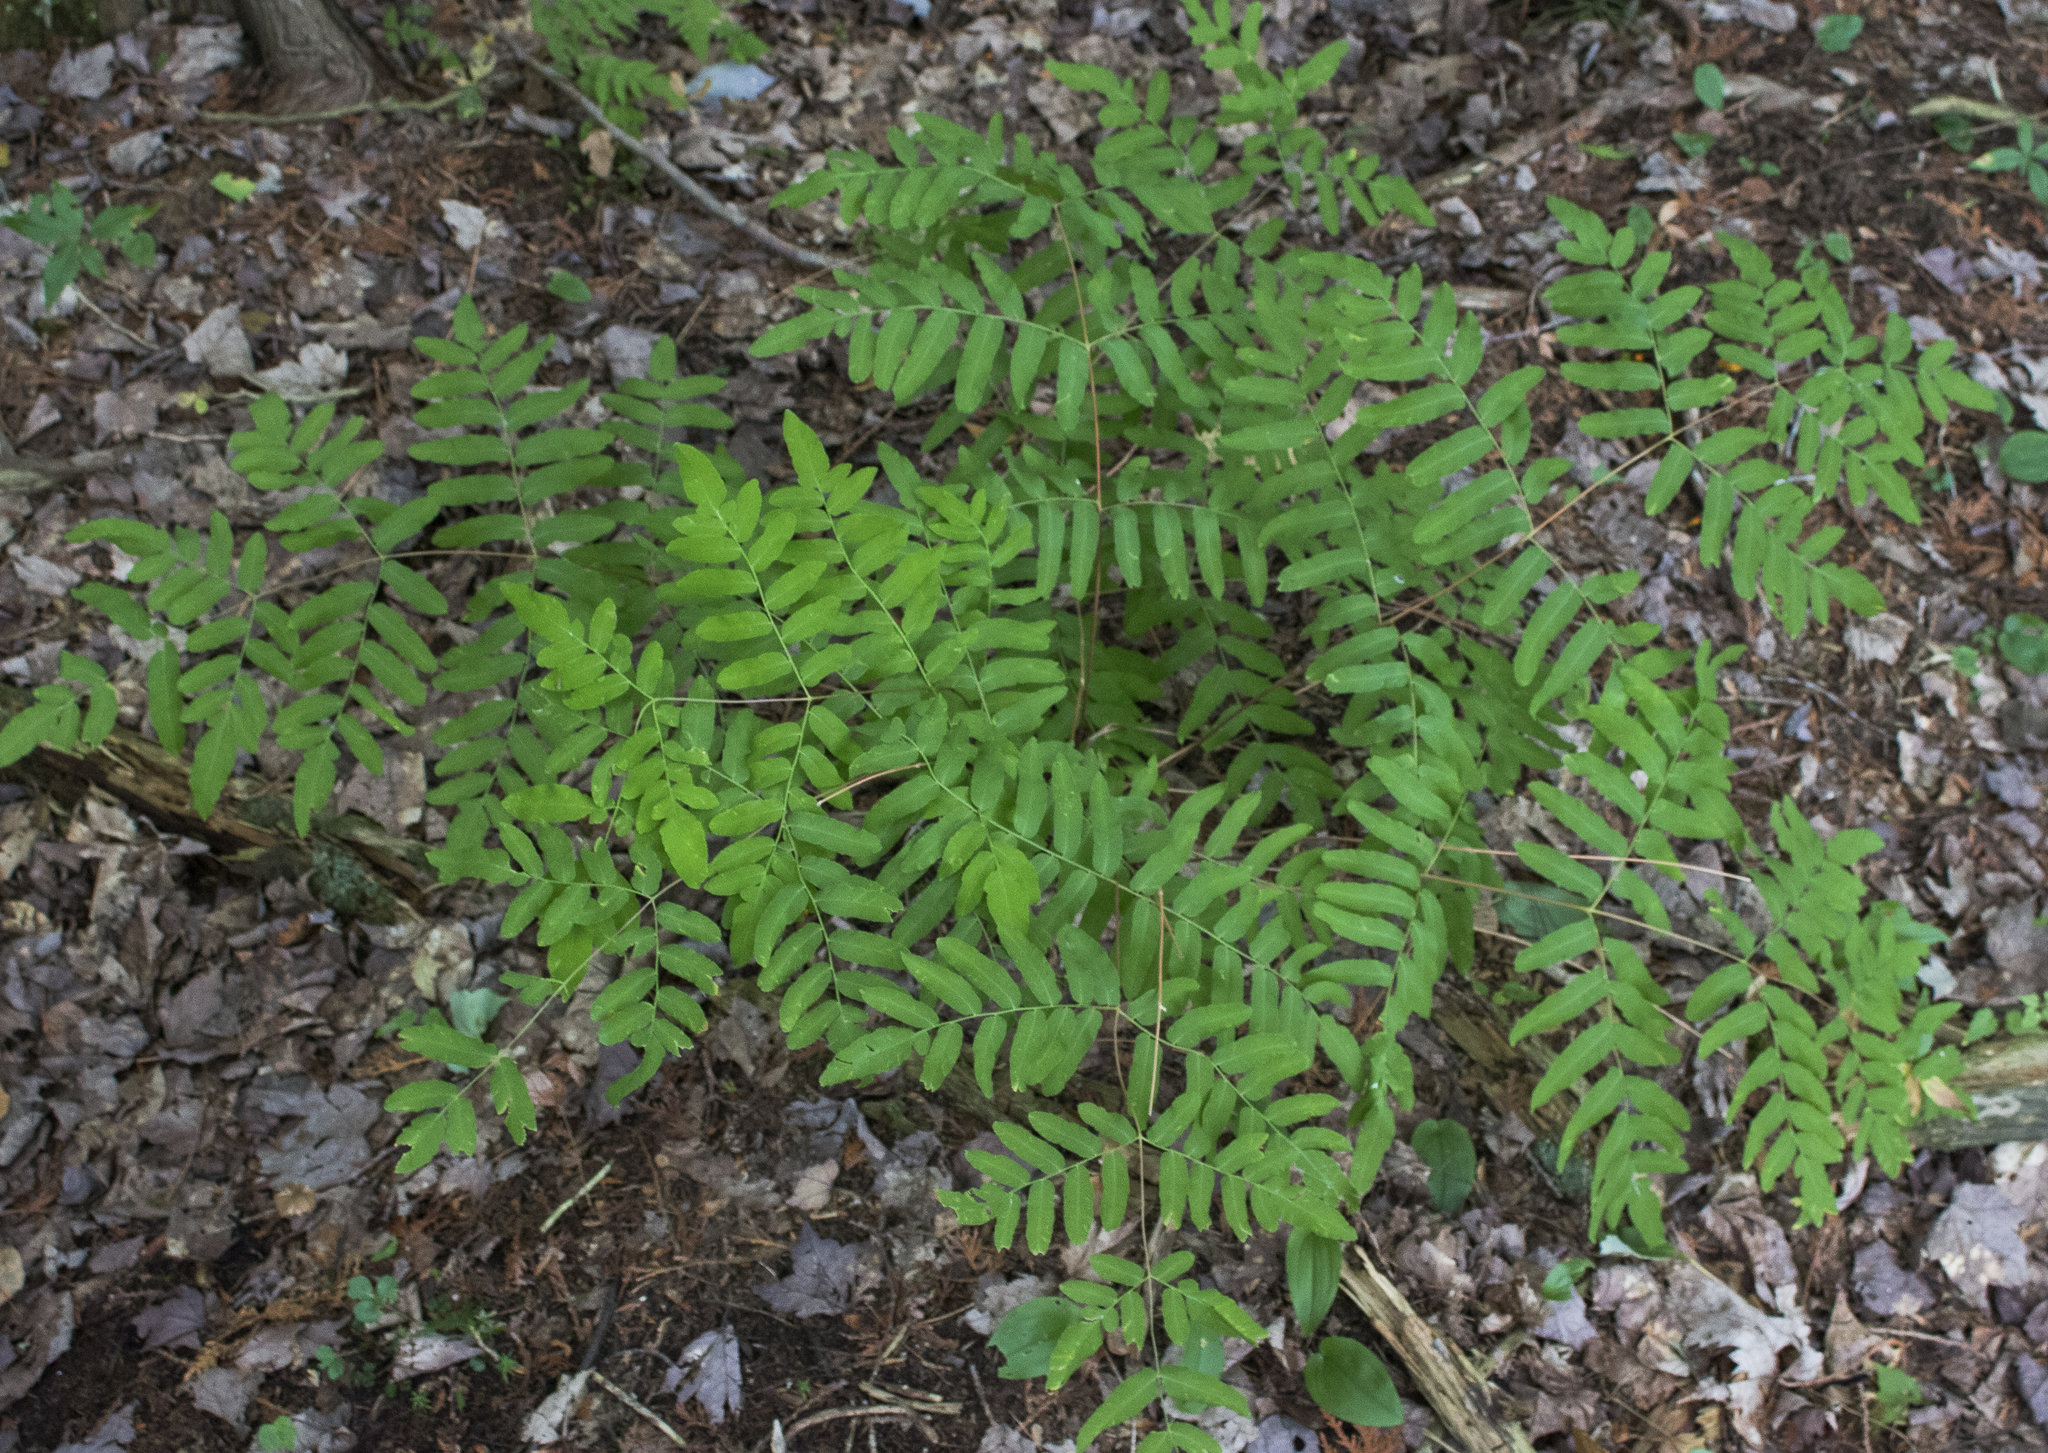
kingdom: Plantae
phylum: Tracheophyta
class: Polypodiopsida
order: Osmundales
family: Osmundaceae
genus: Osmunda
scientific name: Osmunda spectabilis
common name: American royal fern
